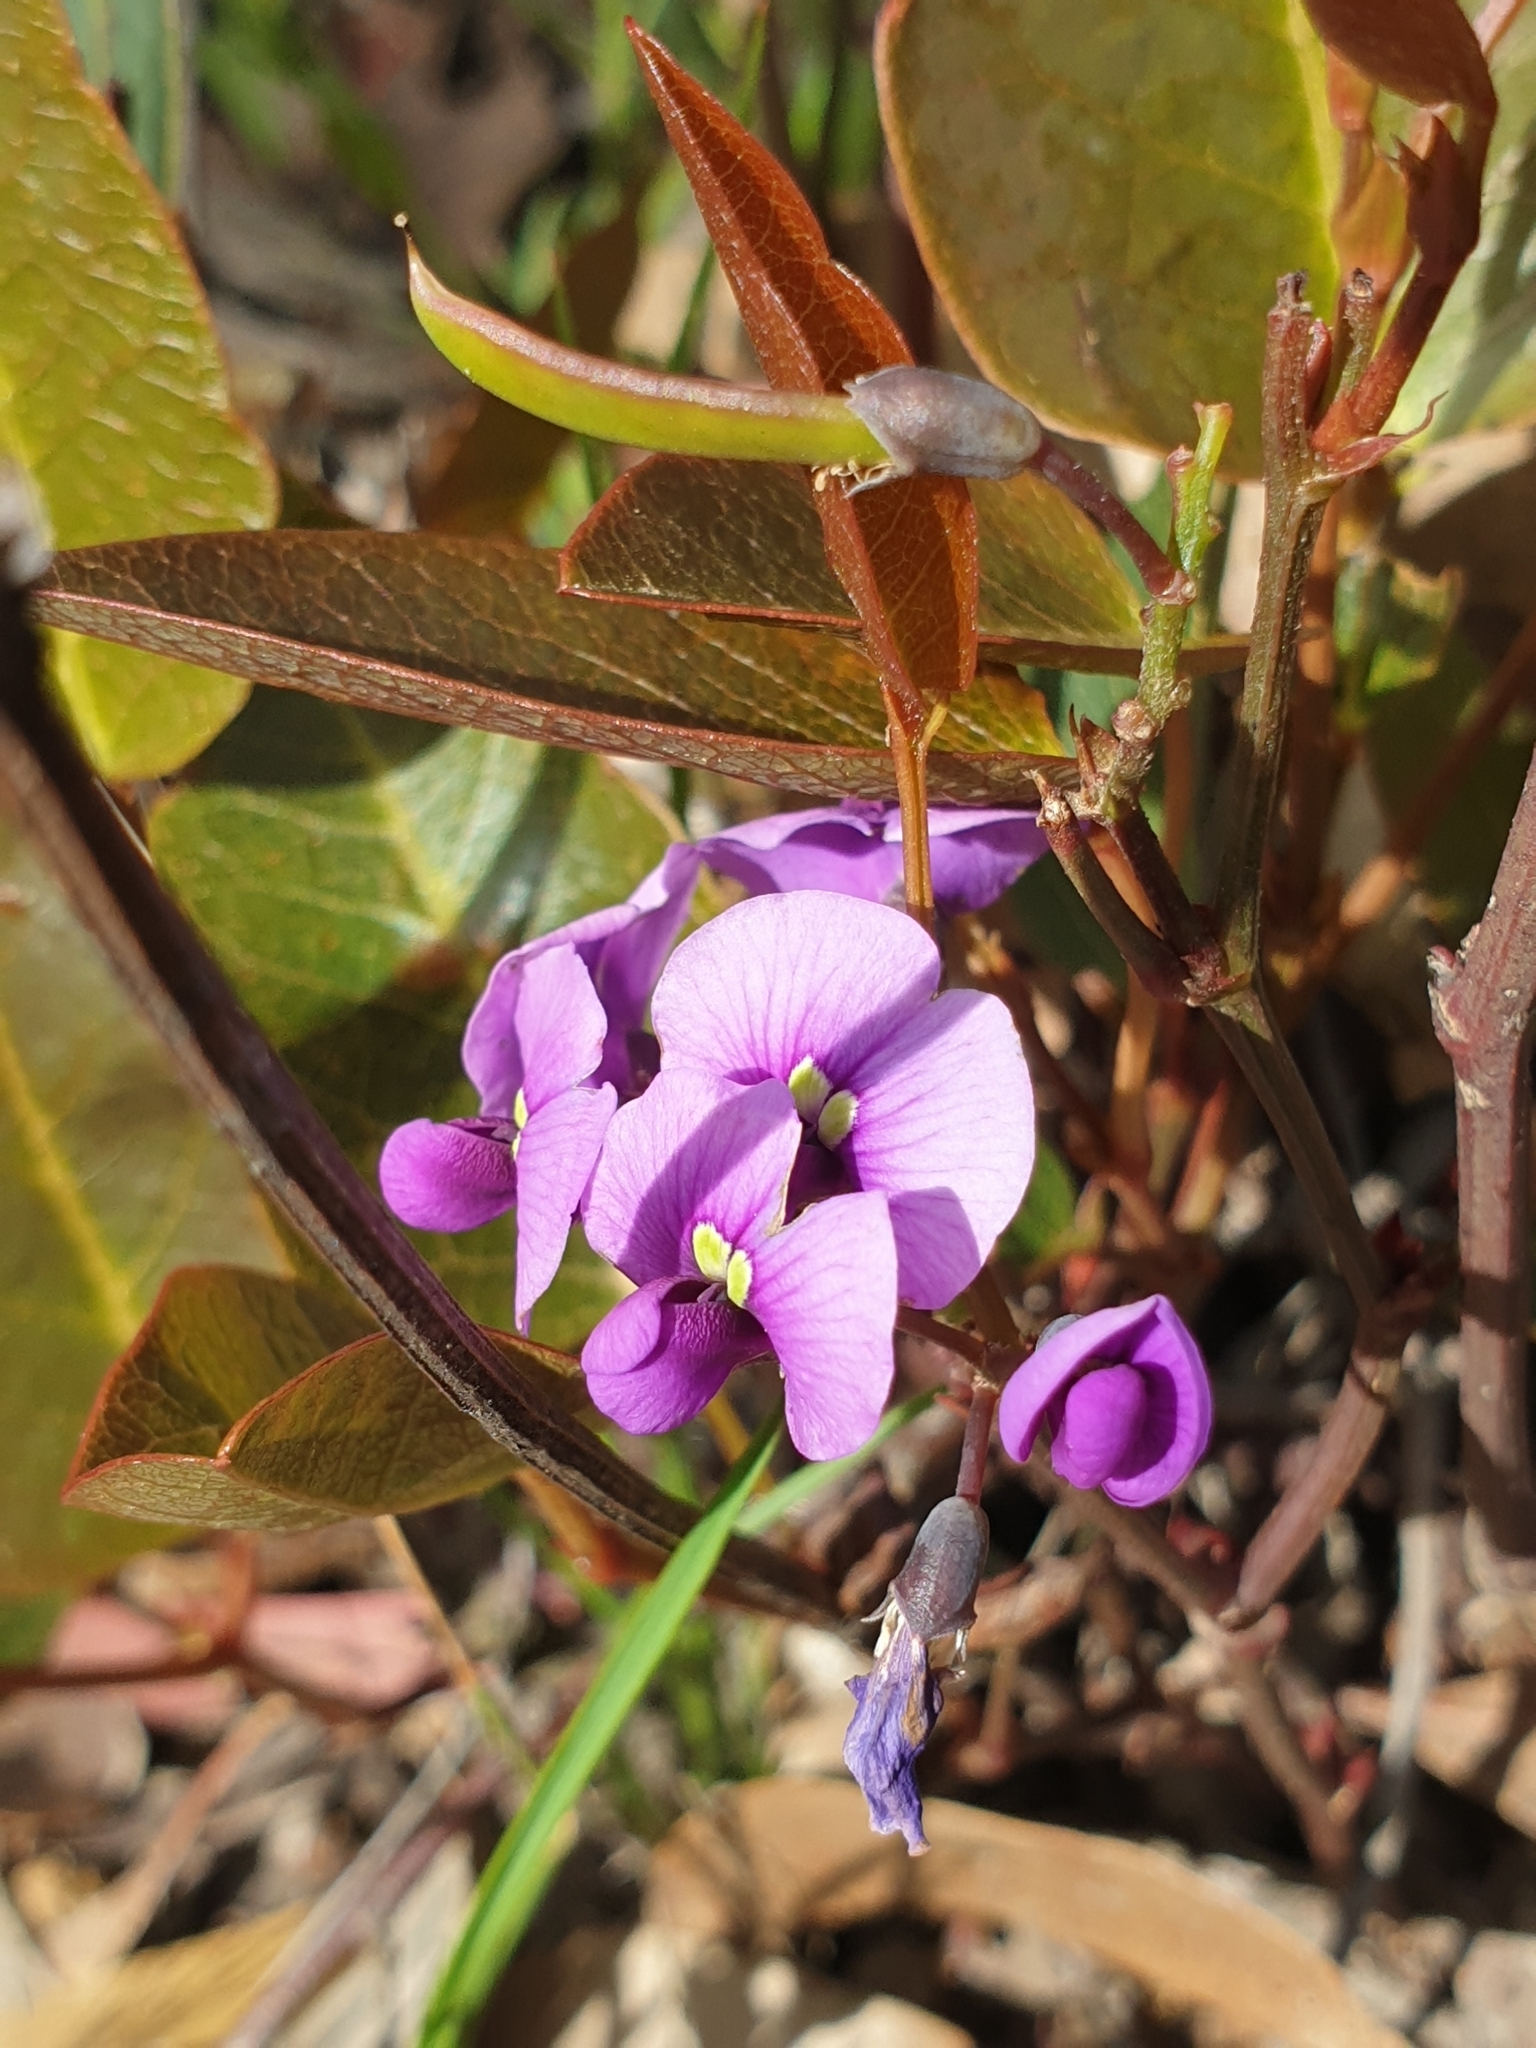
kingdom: Plantae
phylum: Tracheophyta
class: Magnoliopsida
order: Fabales
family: Fabaceae
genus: Hardenbergia
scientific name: Hardenbergia violacea
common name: Coral-pea
